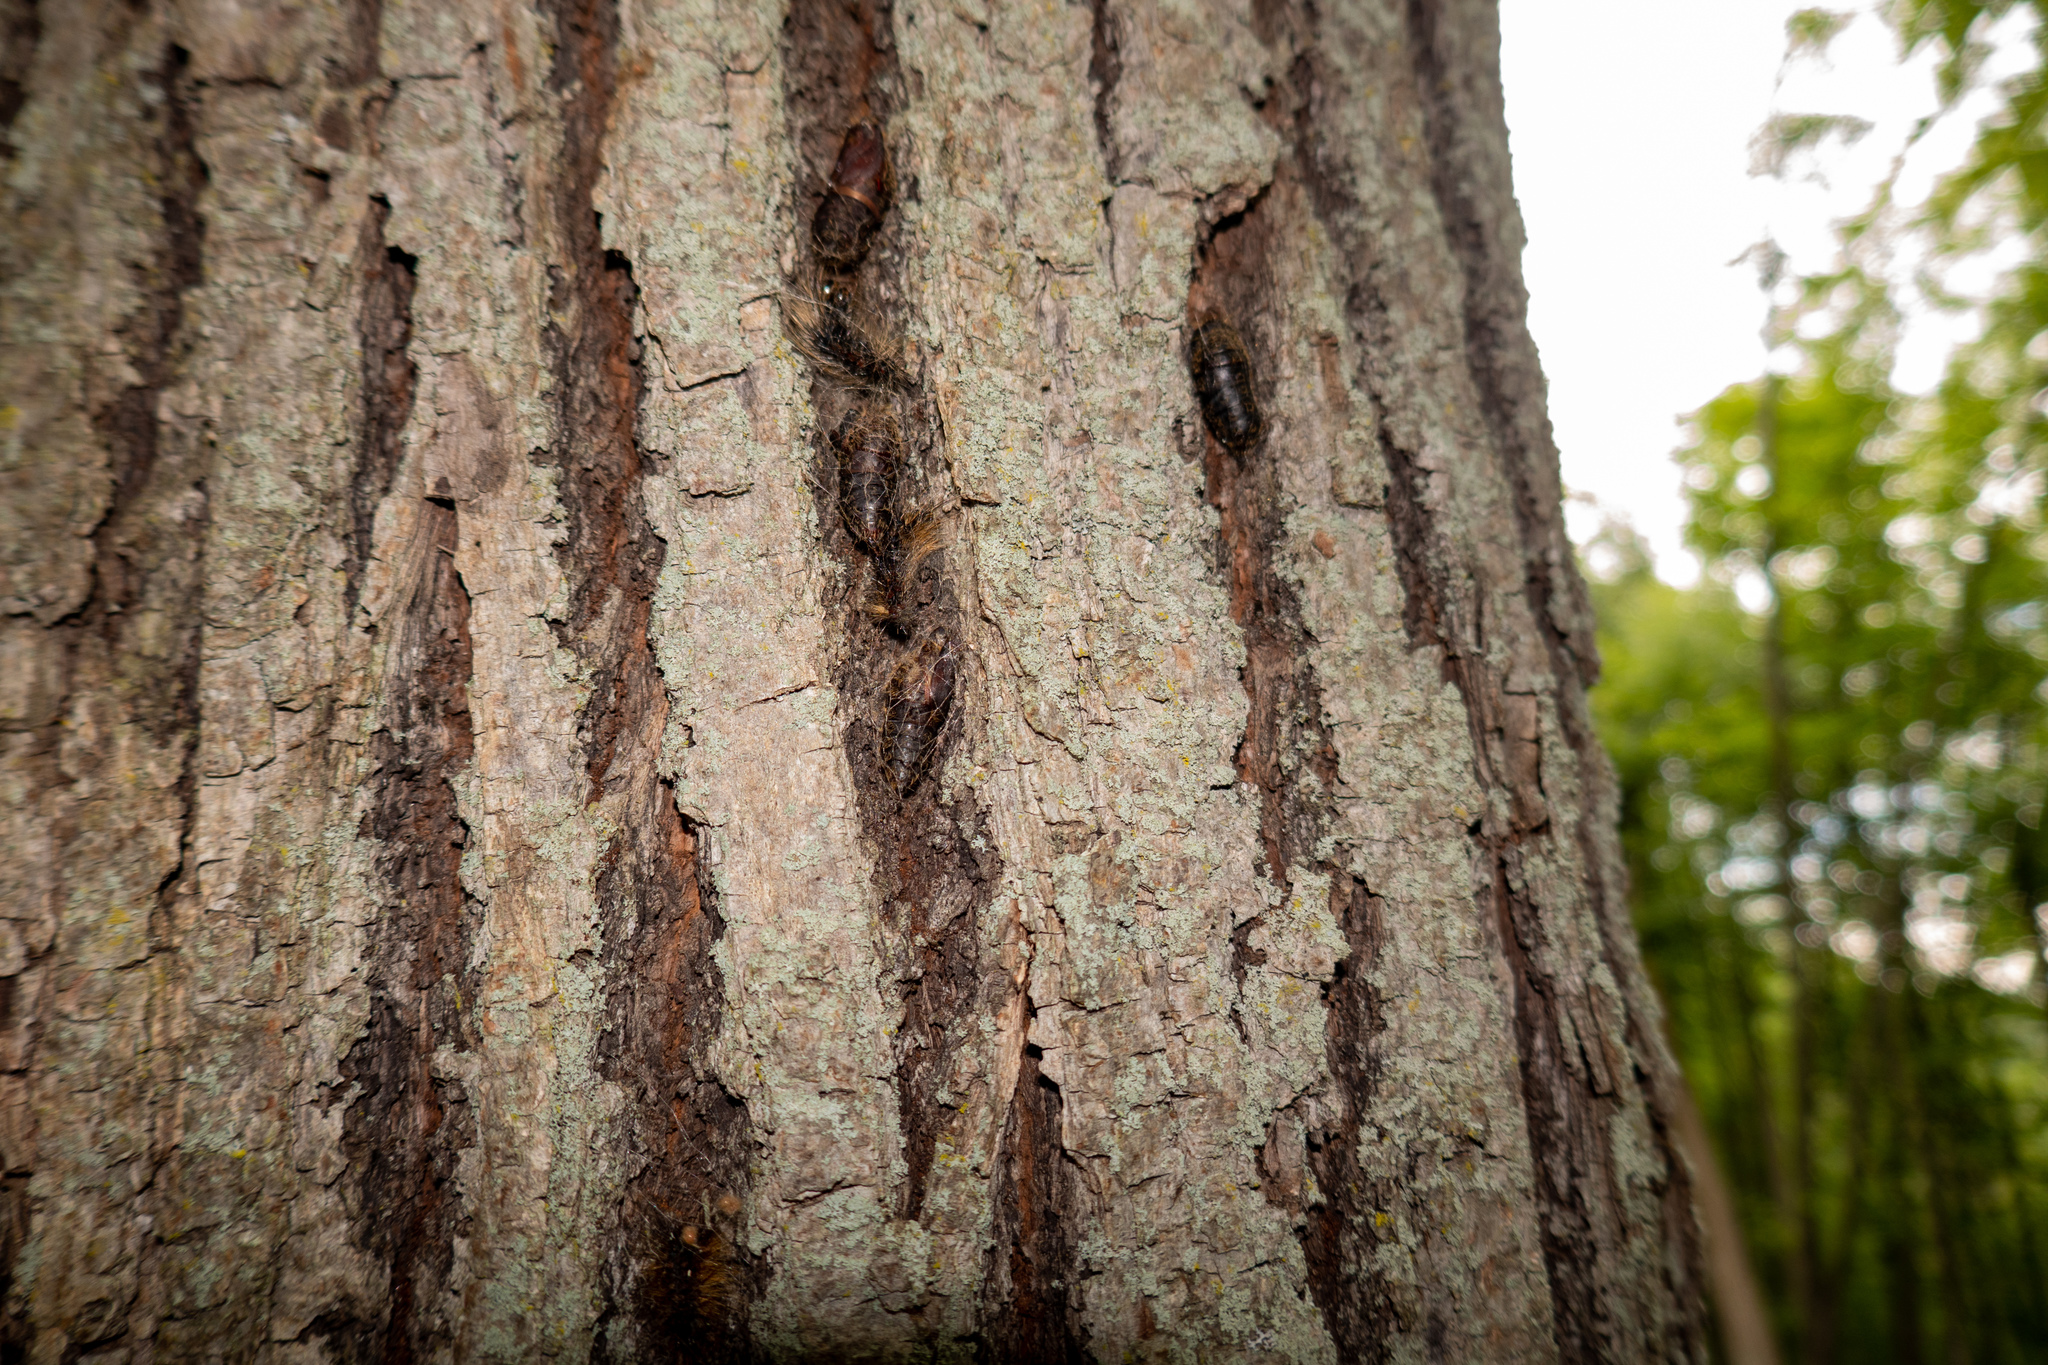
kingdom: Animalia
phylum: Arthropoda
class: Insecta
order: Lepidoptera
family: Erebidae
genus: Lymantria
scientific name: Lymantria dispar
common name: Gypsy moth
